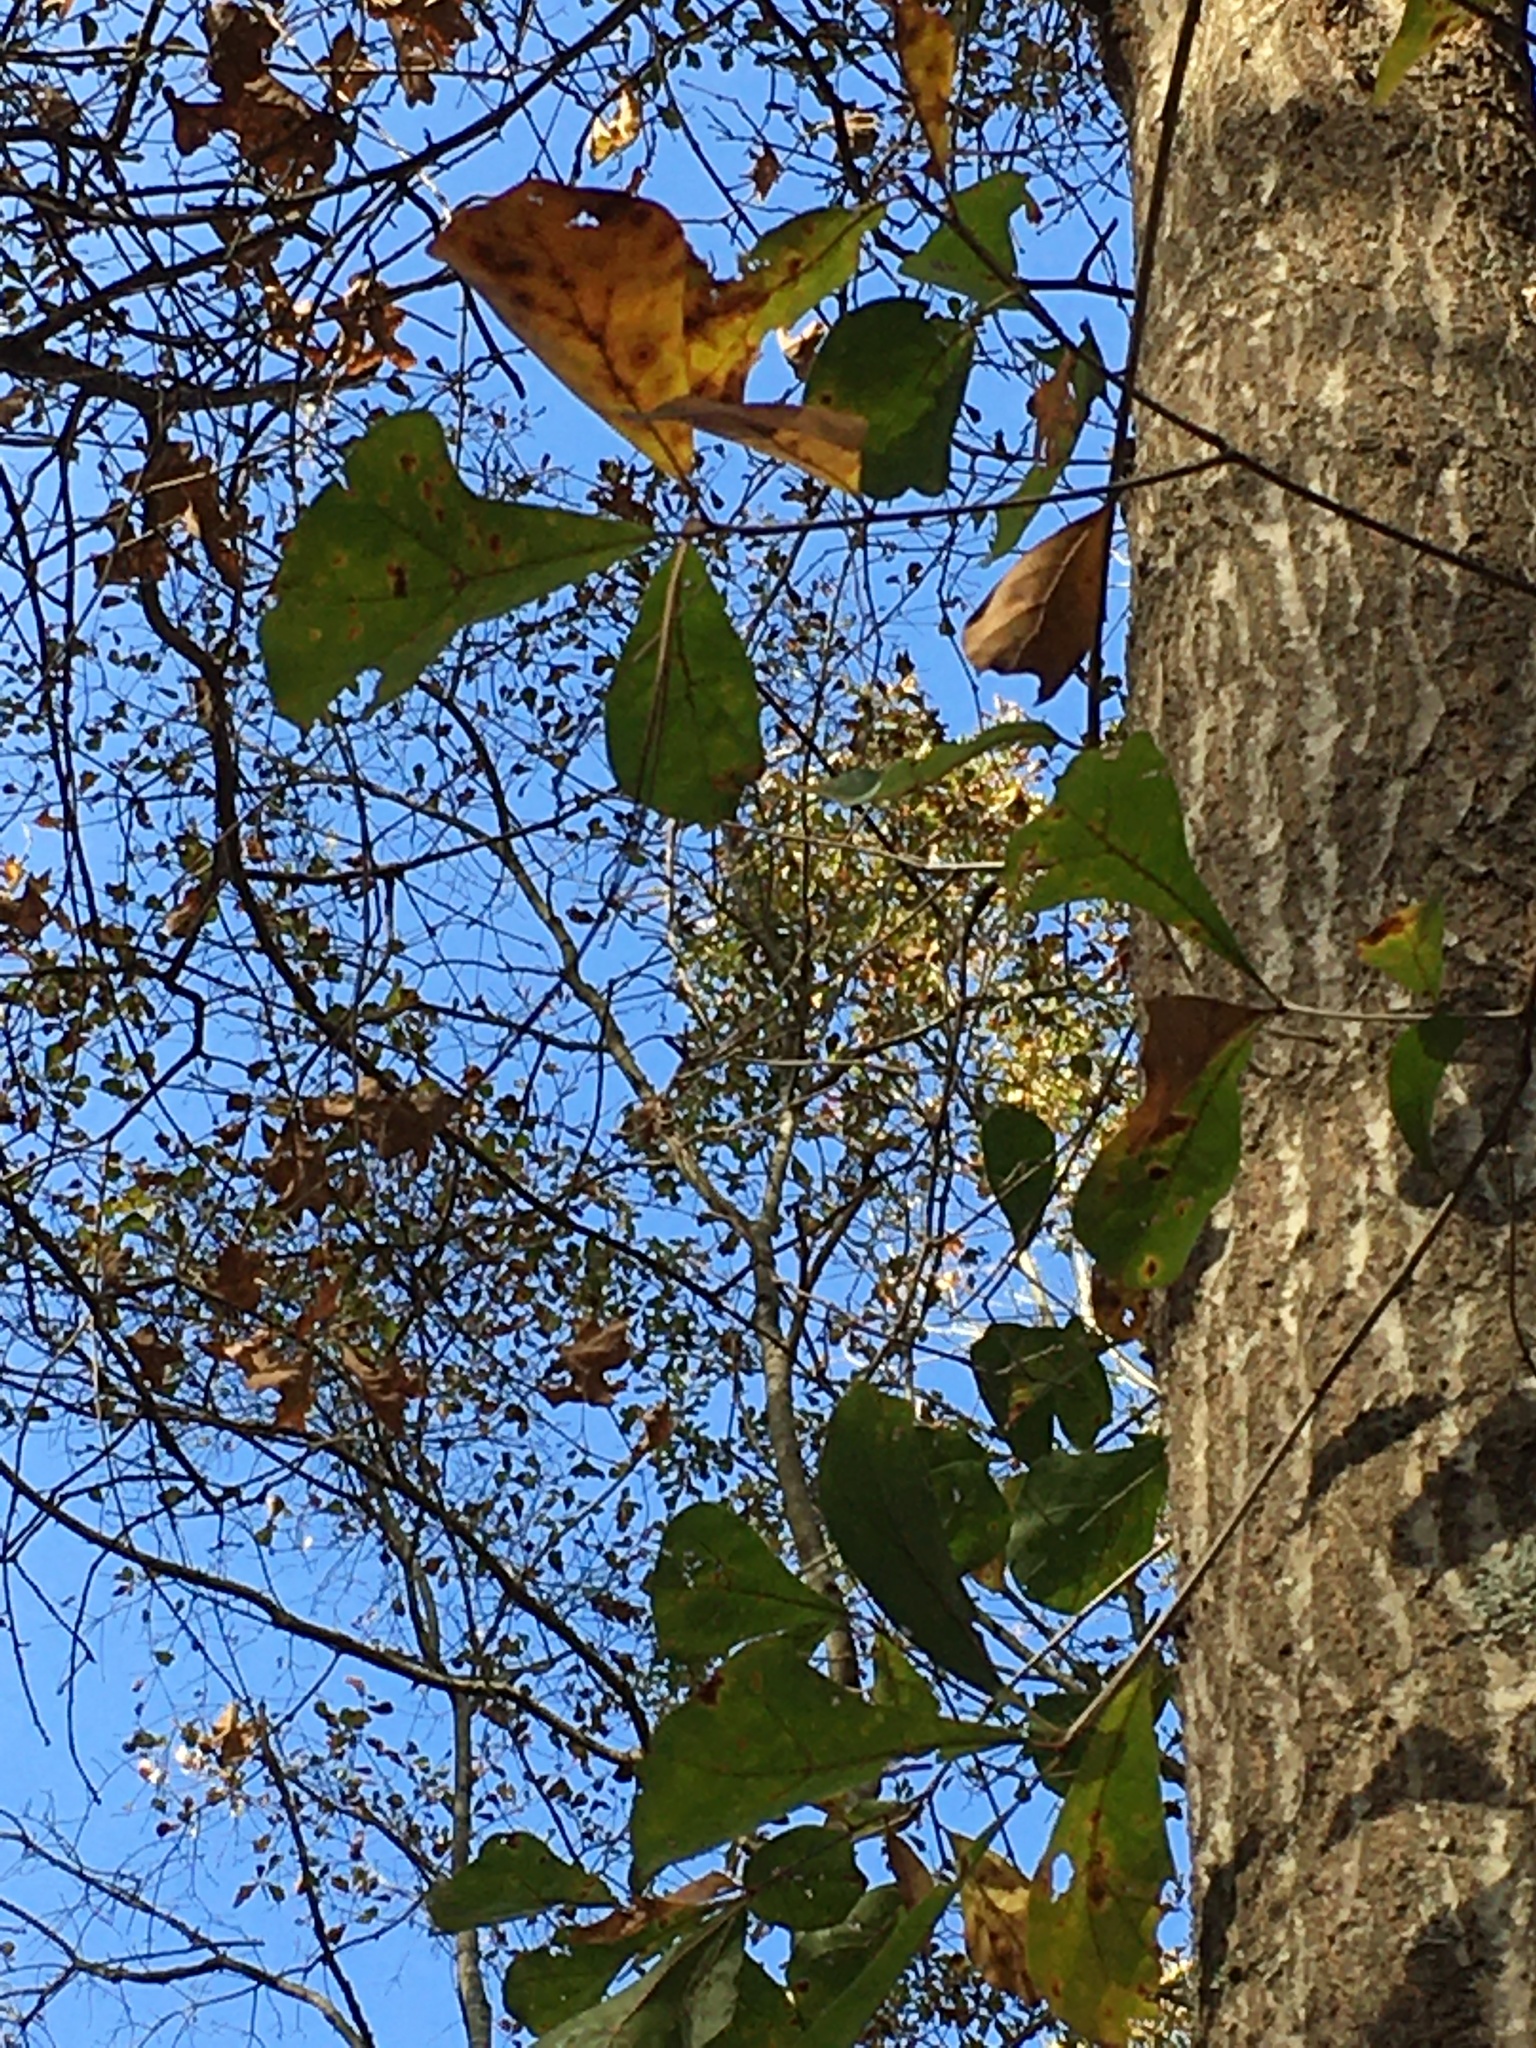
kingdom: Plantae
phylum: Tracheophyta
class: Magnoliopsida
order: Fagales
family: Fagaceae
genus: Quercus
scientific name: Quercus nigra
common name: Water oak
